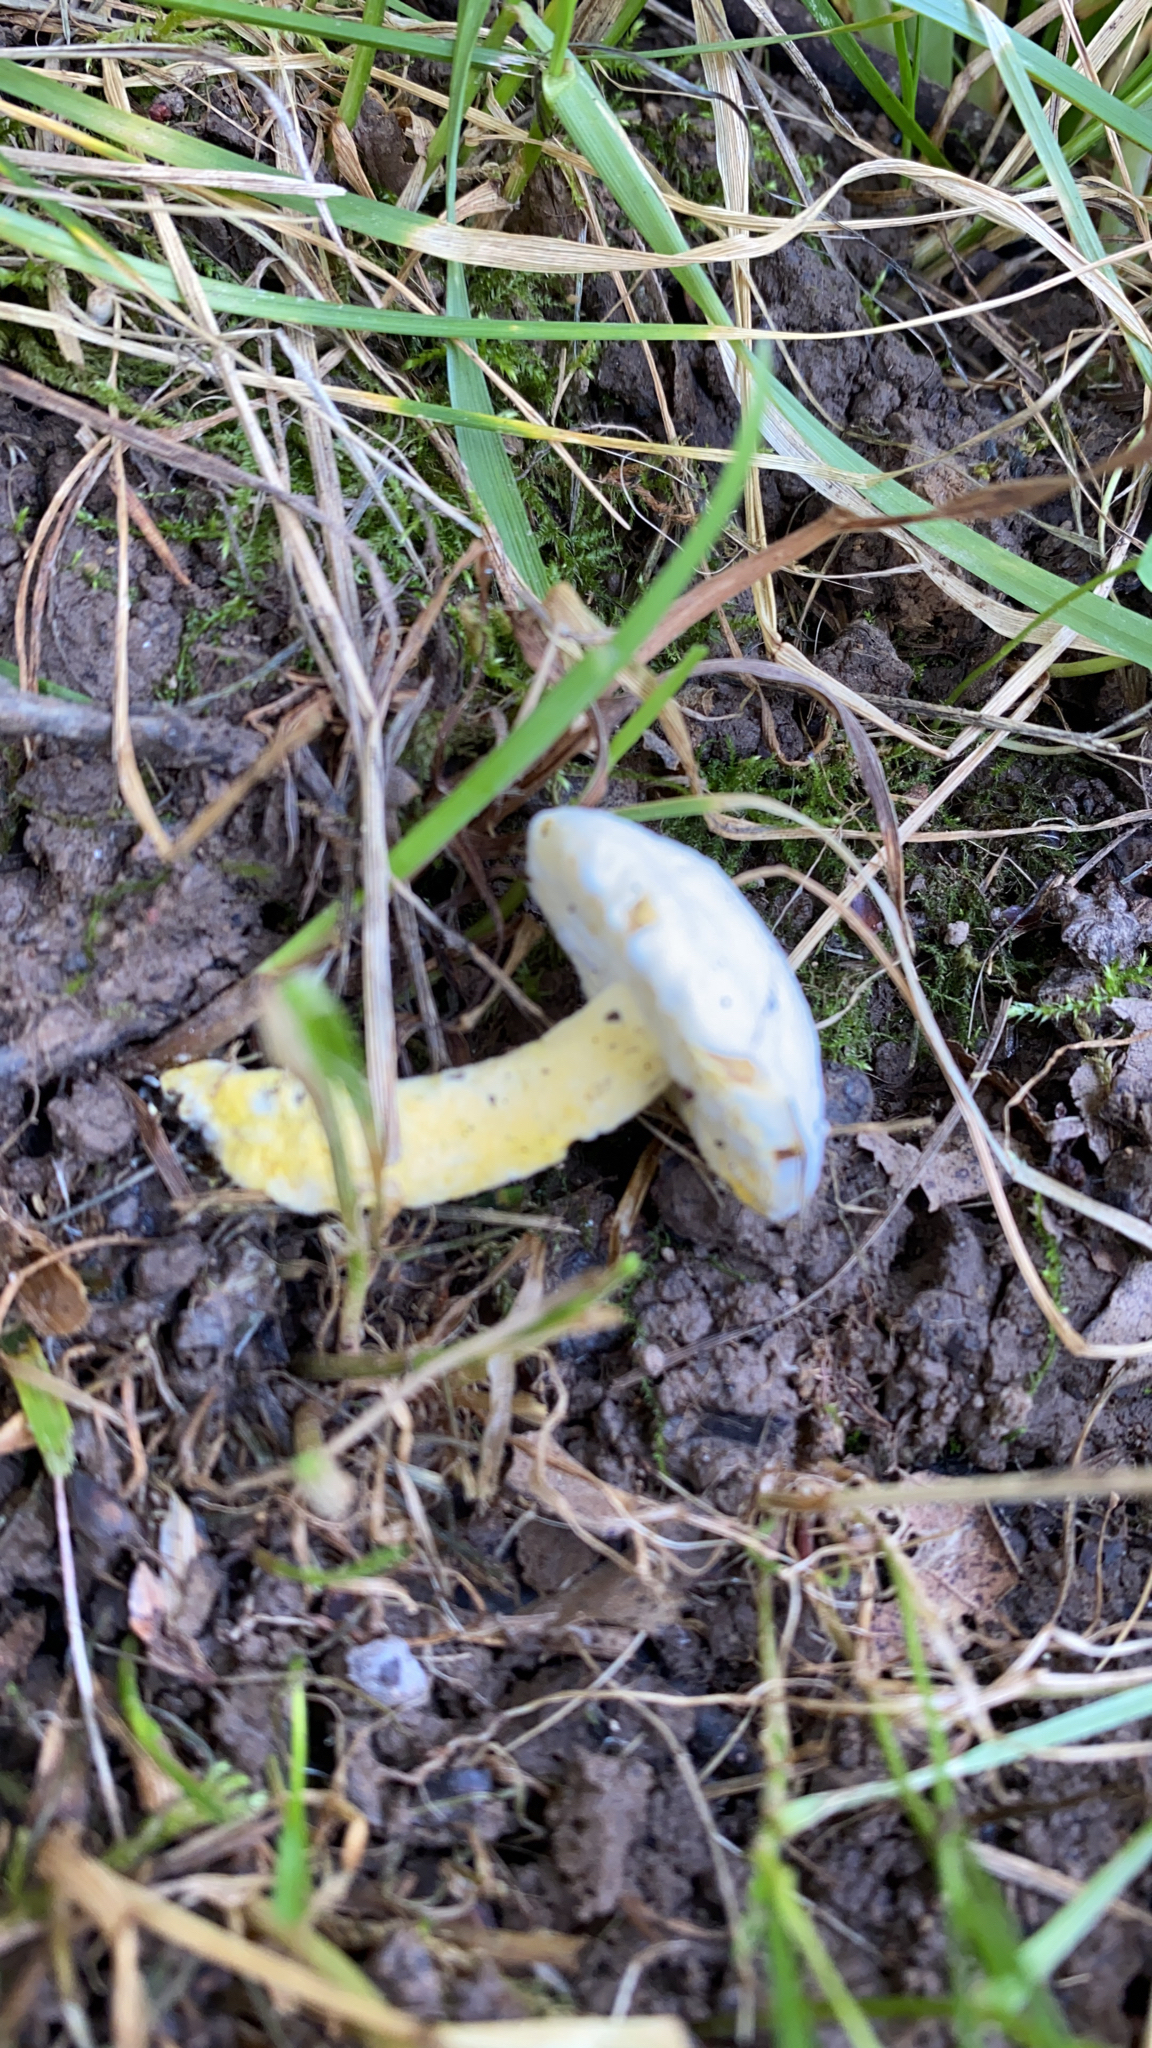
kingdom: Fungi
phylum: Ascomycota
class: Sordariomycetes
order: Hypocreales
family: Hypocreaceae
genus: Hypomyces
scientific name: Hypomyces chrysospermus
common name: Bolete mould
